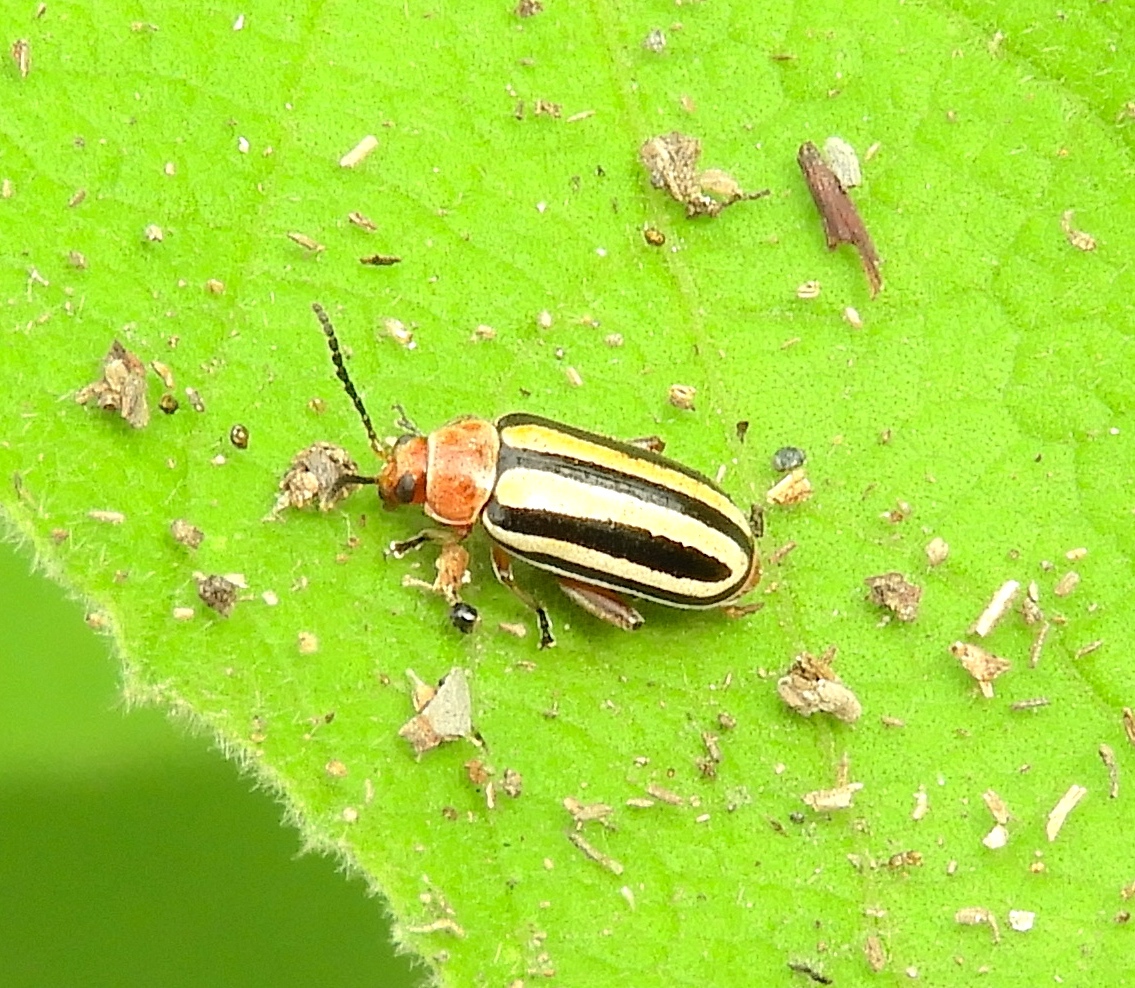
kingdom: Animalia
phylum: Arthropoda
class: Insecta
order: Coleoptera
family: Chrysomelidae
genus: Disonycha
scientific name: Disonycha
